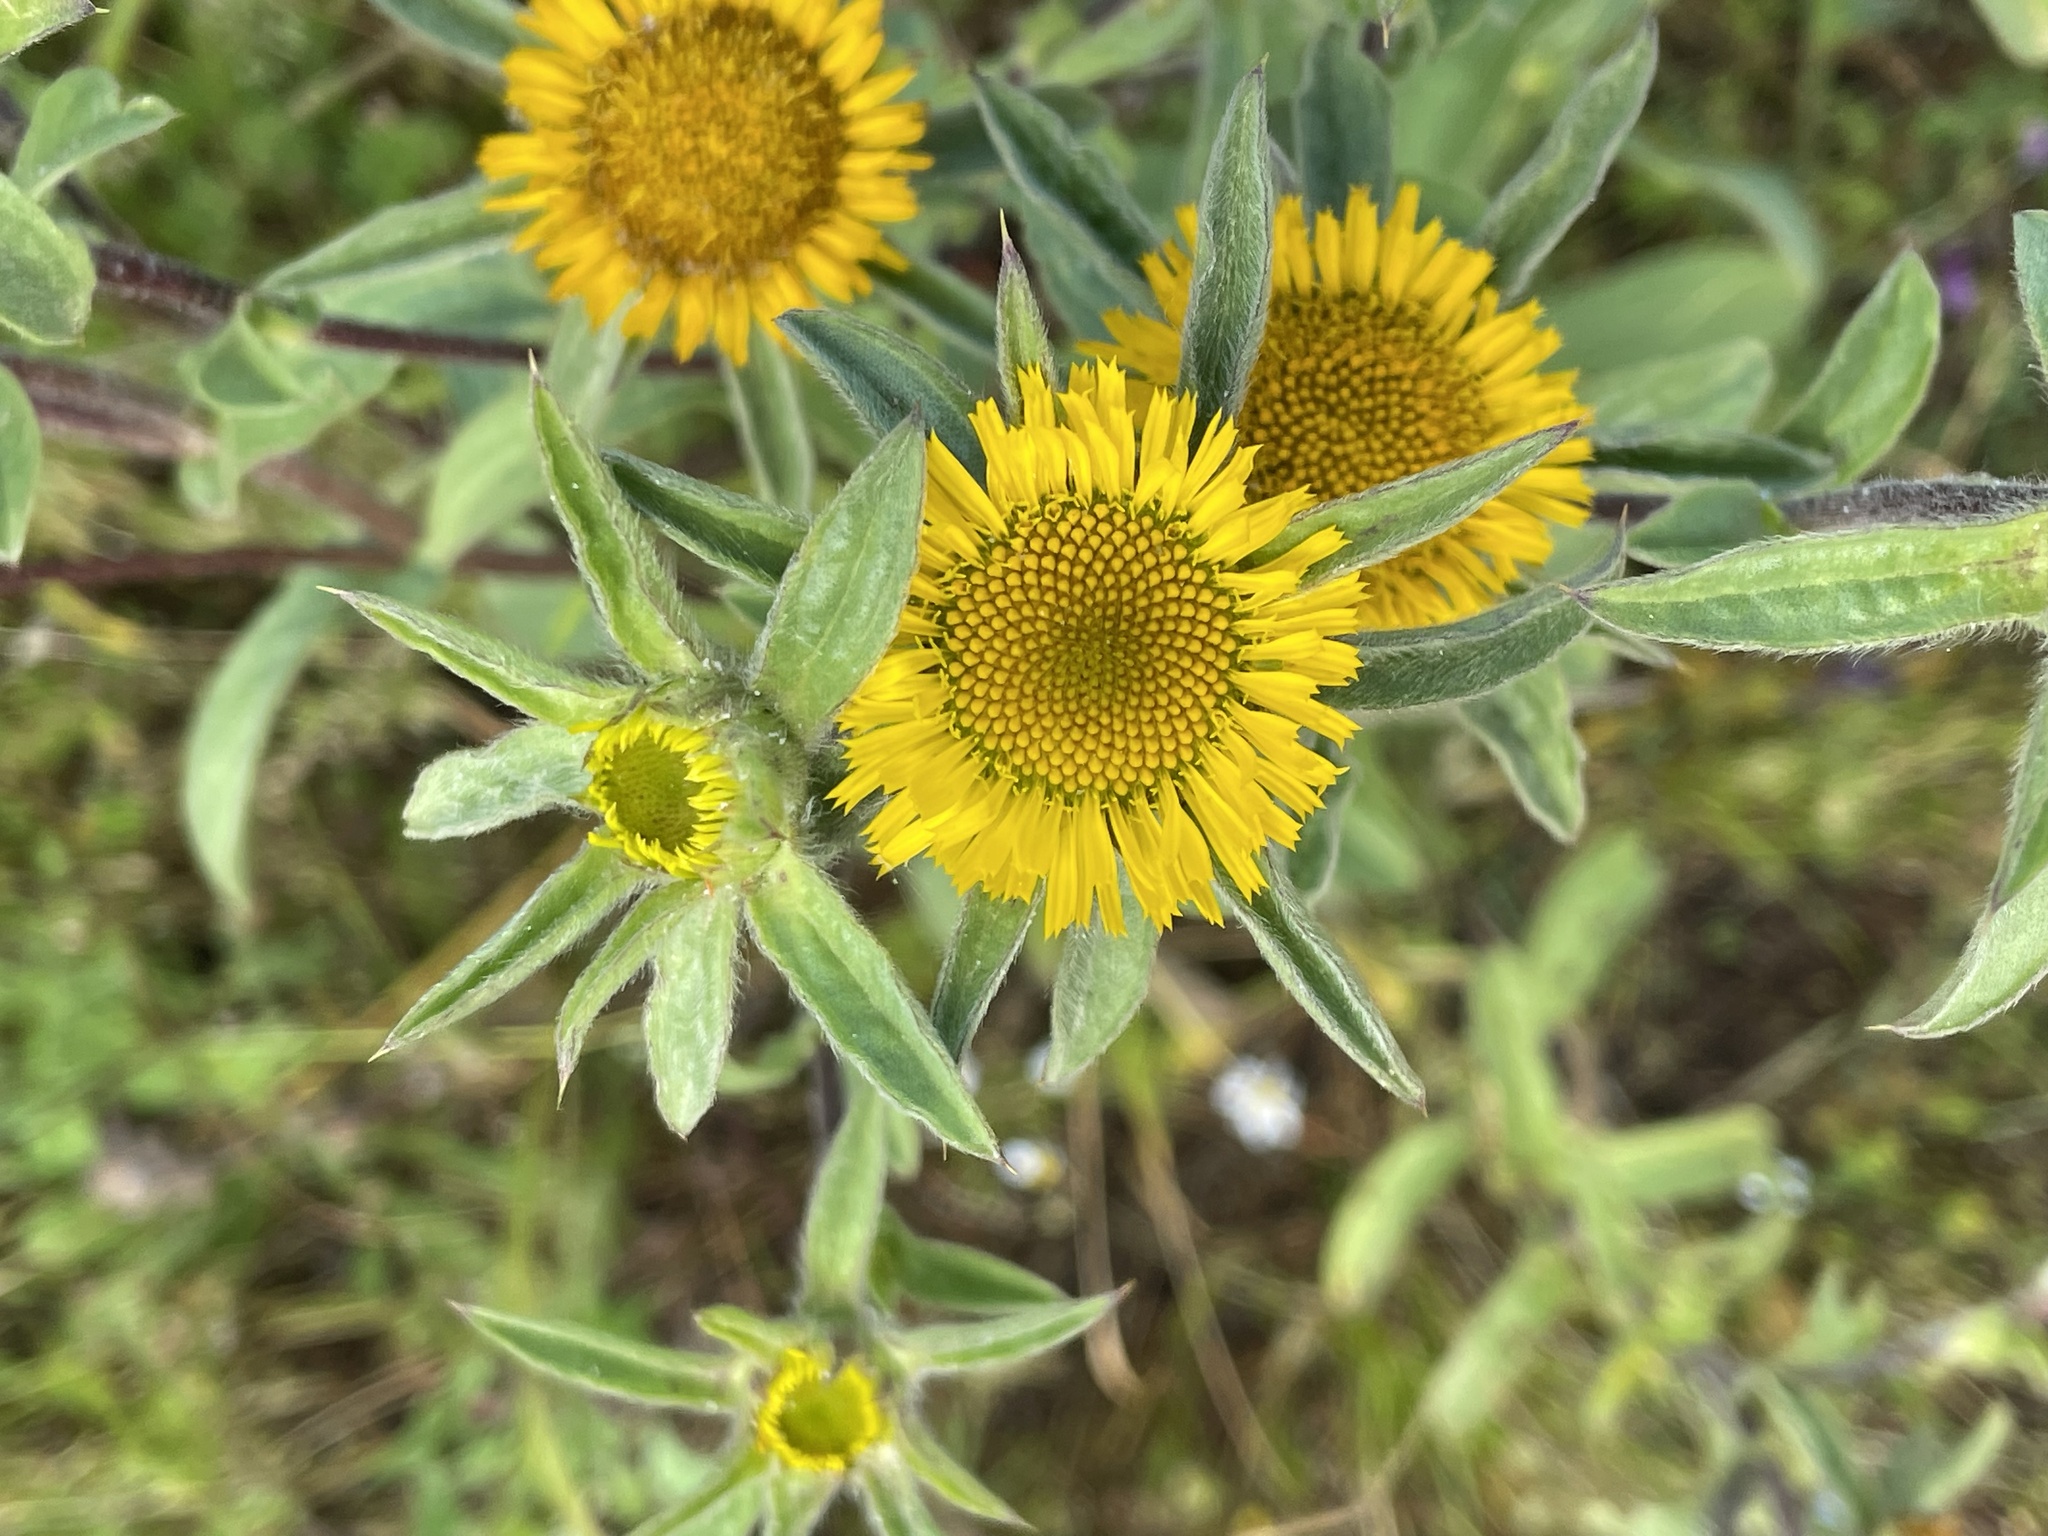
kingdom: Plantae
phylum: Tracheophyta
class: Magnoliopsida
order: Asterales
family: Asteraceae
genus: Pallenis
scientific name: Pallenis spinosa
